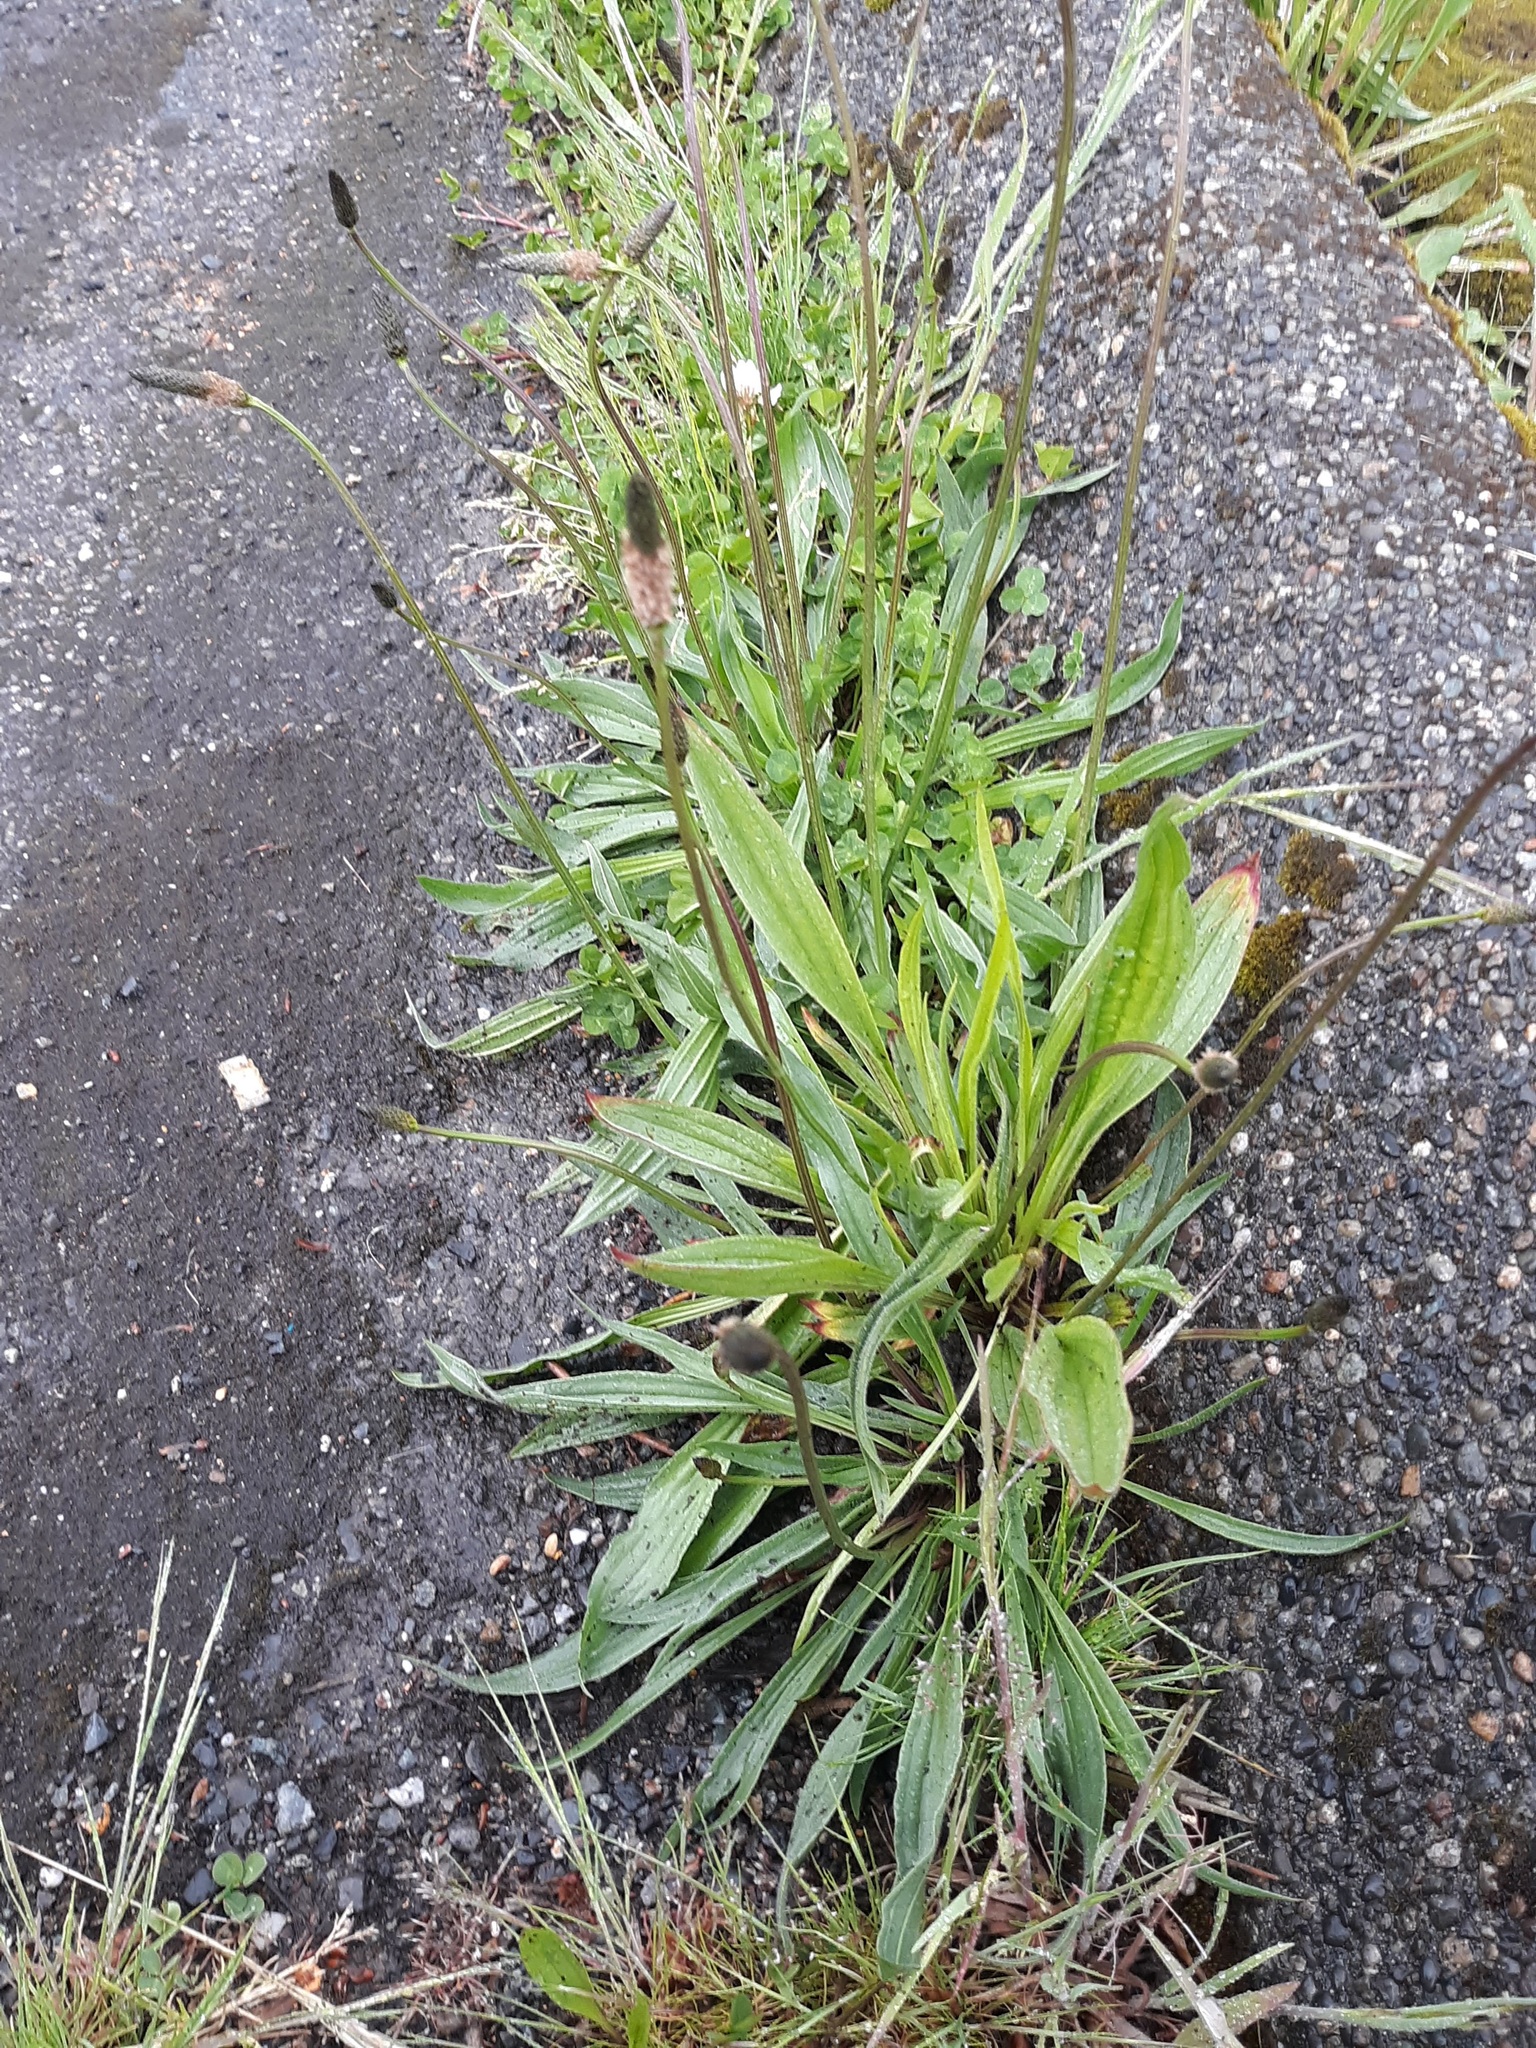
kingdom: Plantae
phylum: Tracheophyta
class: Magnoliopsida
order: Lamiales
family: Plantaginaceae
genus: Plantago
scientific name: Plantago lanceolata
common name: Ribwort plantain
